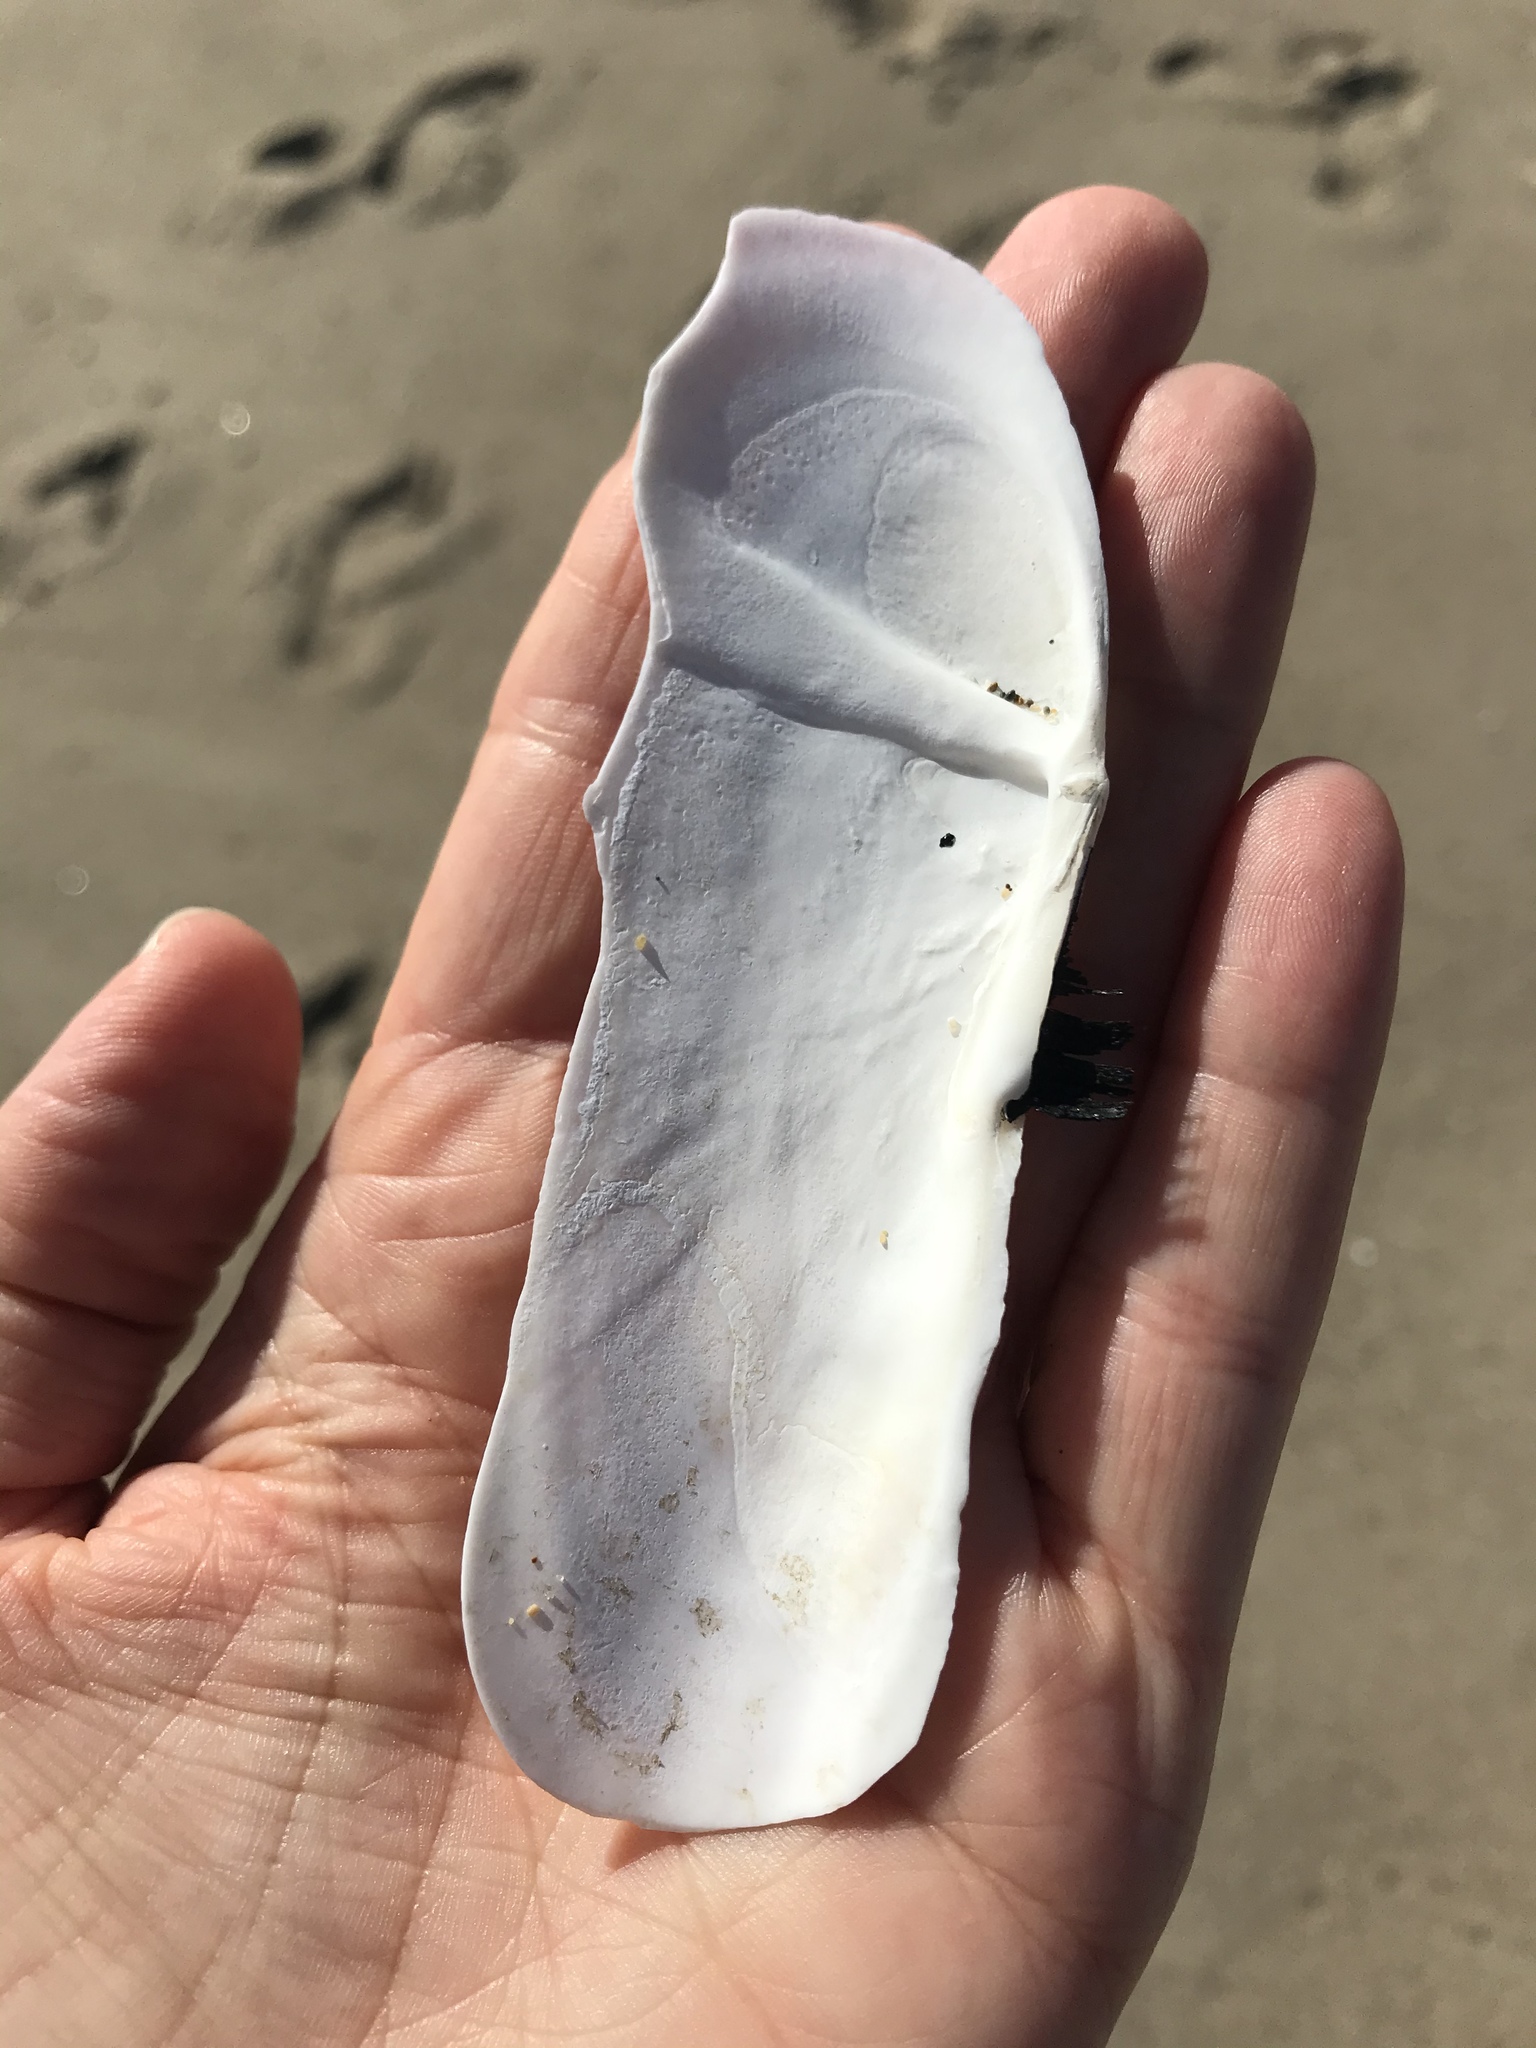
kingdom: Animalia
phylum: Mollusca
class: Bivalvia
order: Adapedonta
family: Pharidae
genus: Siliqua
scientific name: Siliqua patula
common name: Pacific razor clam
